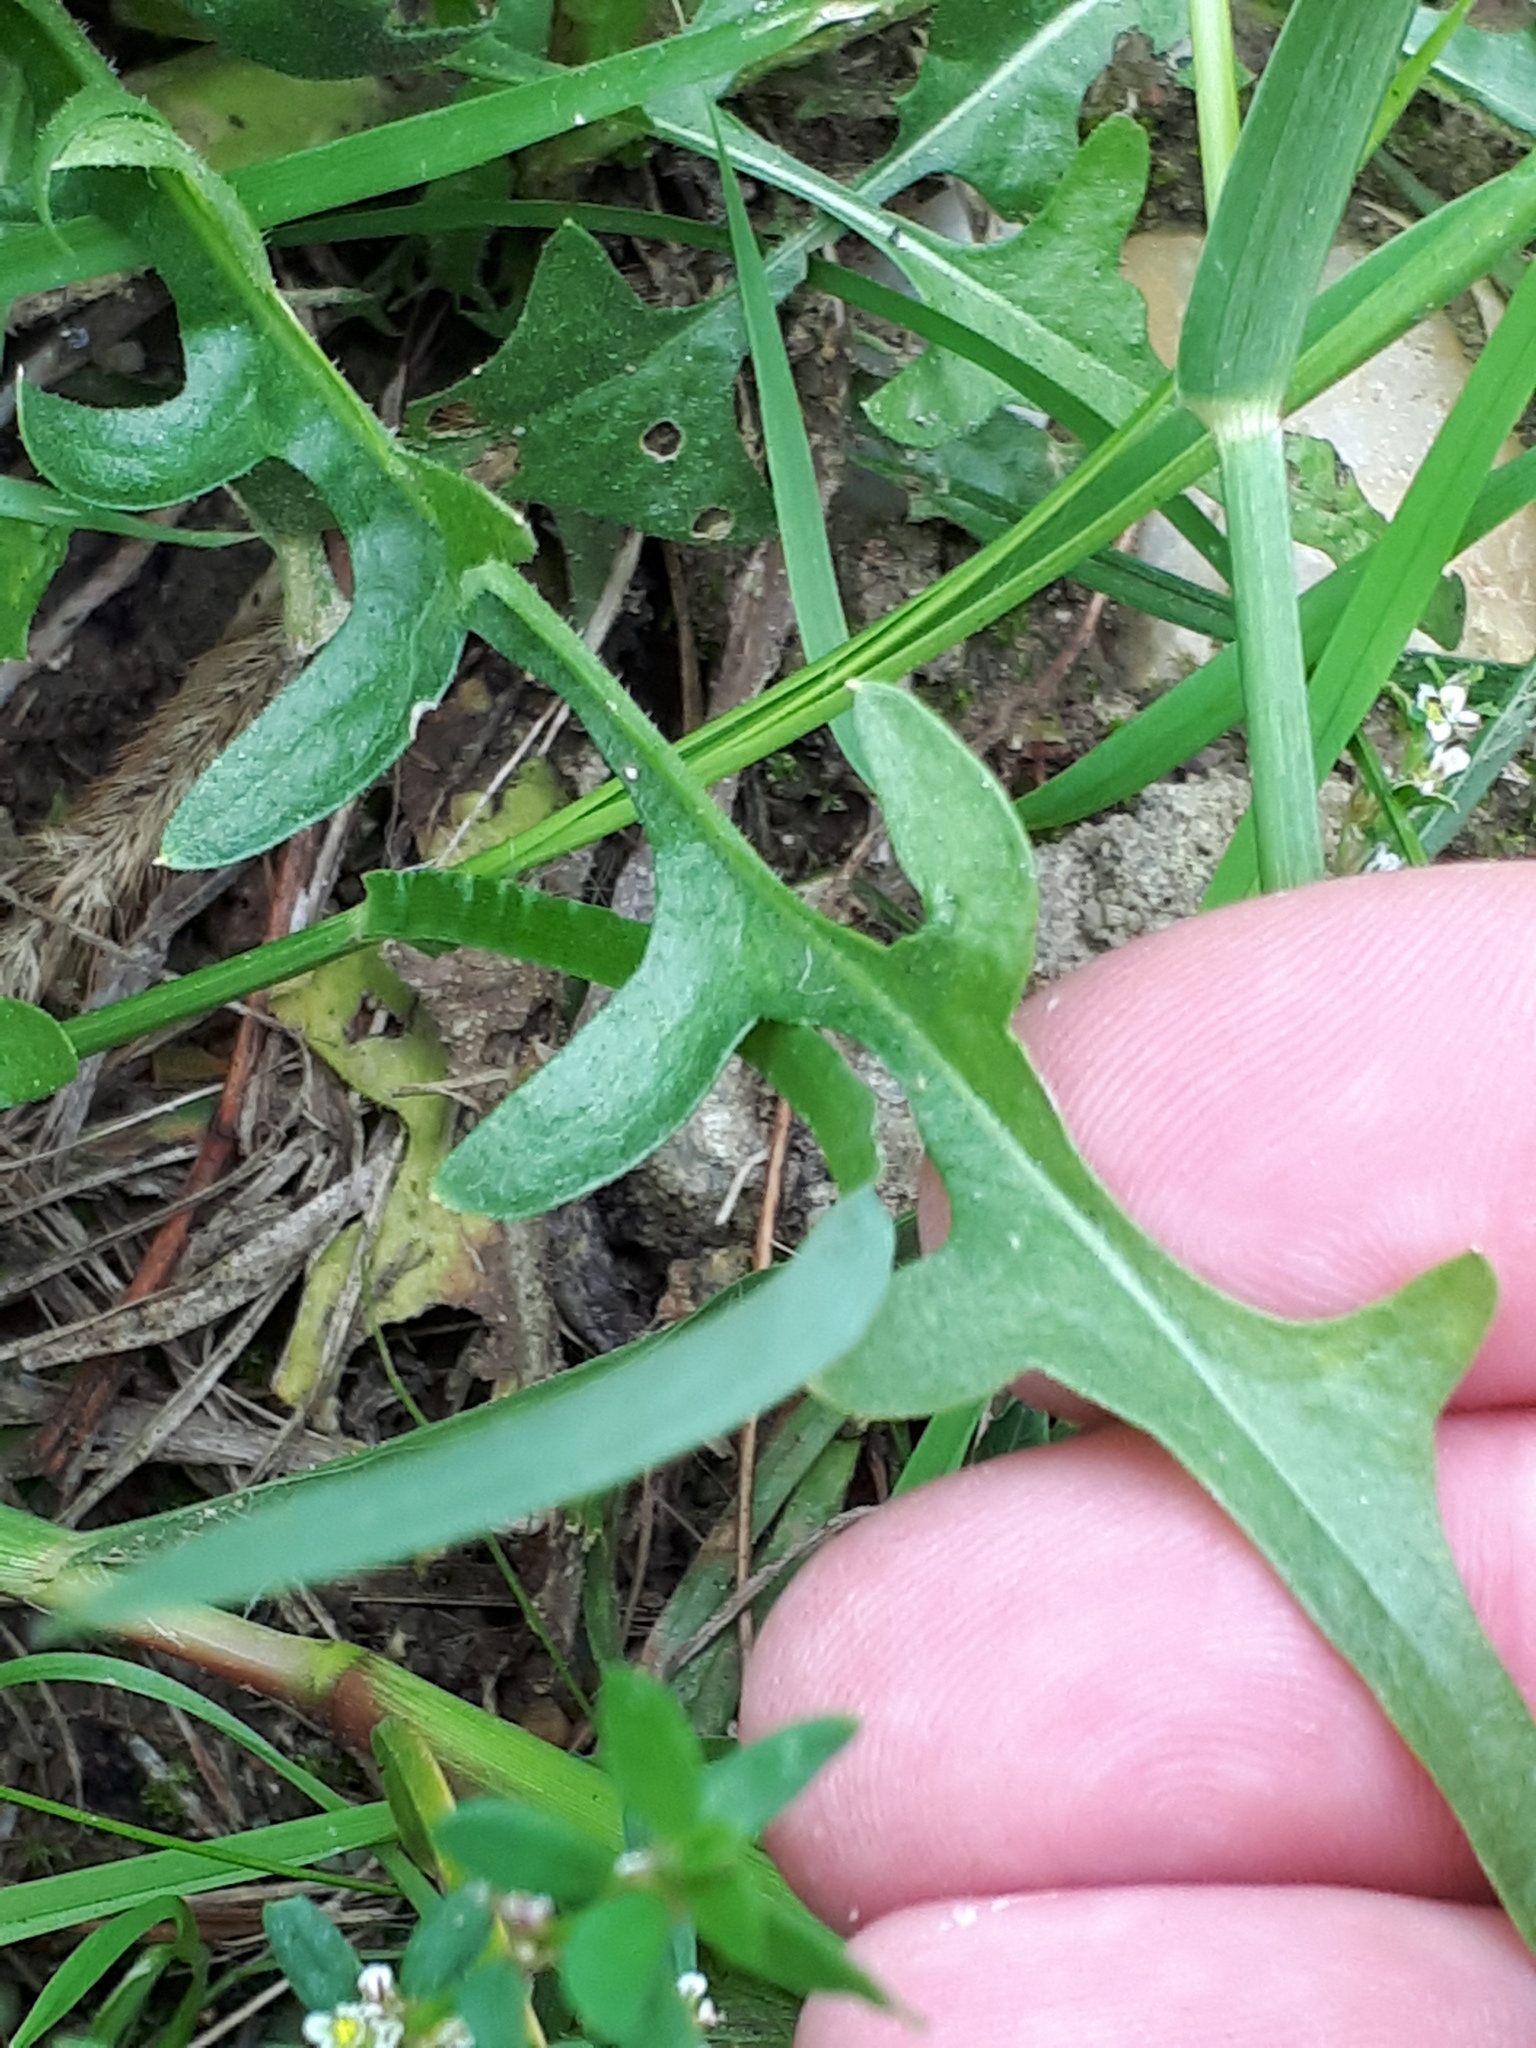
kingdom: Plantae
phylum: Tracheophyta
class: Magnoliopsida
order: Asterales
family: Asteraceae
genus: Crepis
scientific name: Crepis biennis
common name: Rough hawk's-beard
